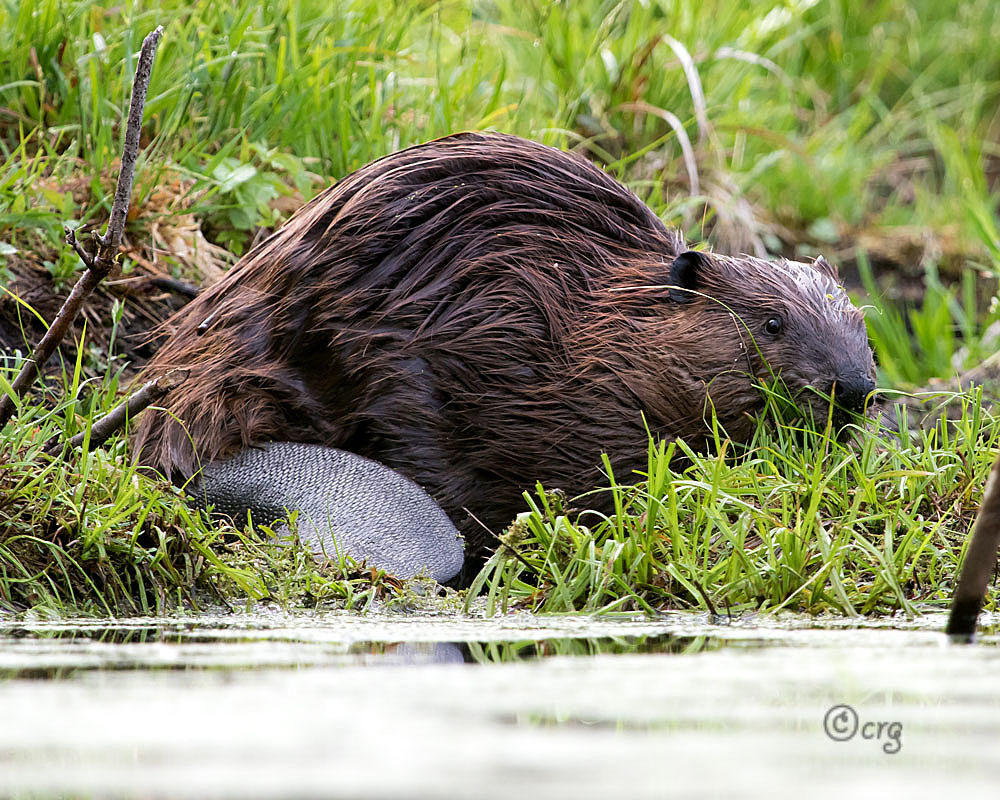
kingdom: Animalia
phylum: Chordata
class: Mammalia
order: Rodentia
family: Castoridae
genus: Castor
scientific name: Castor canadensis
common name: American beaver
